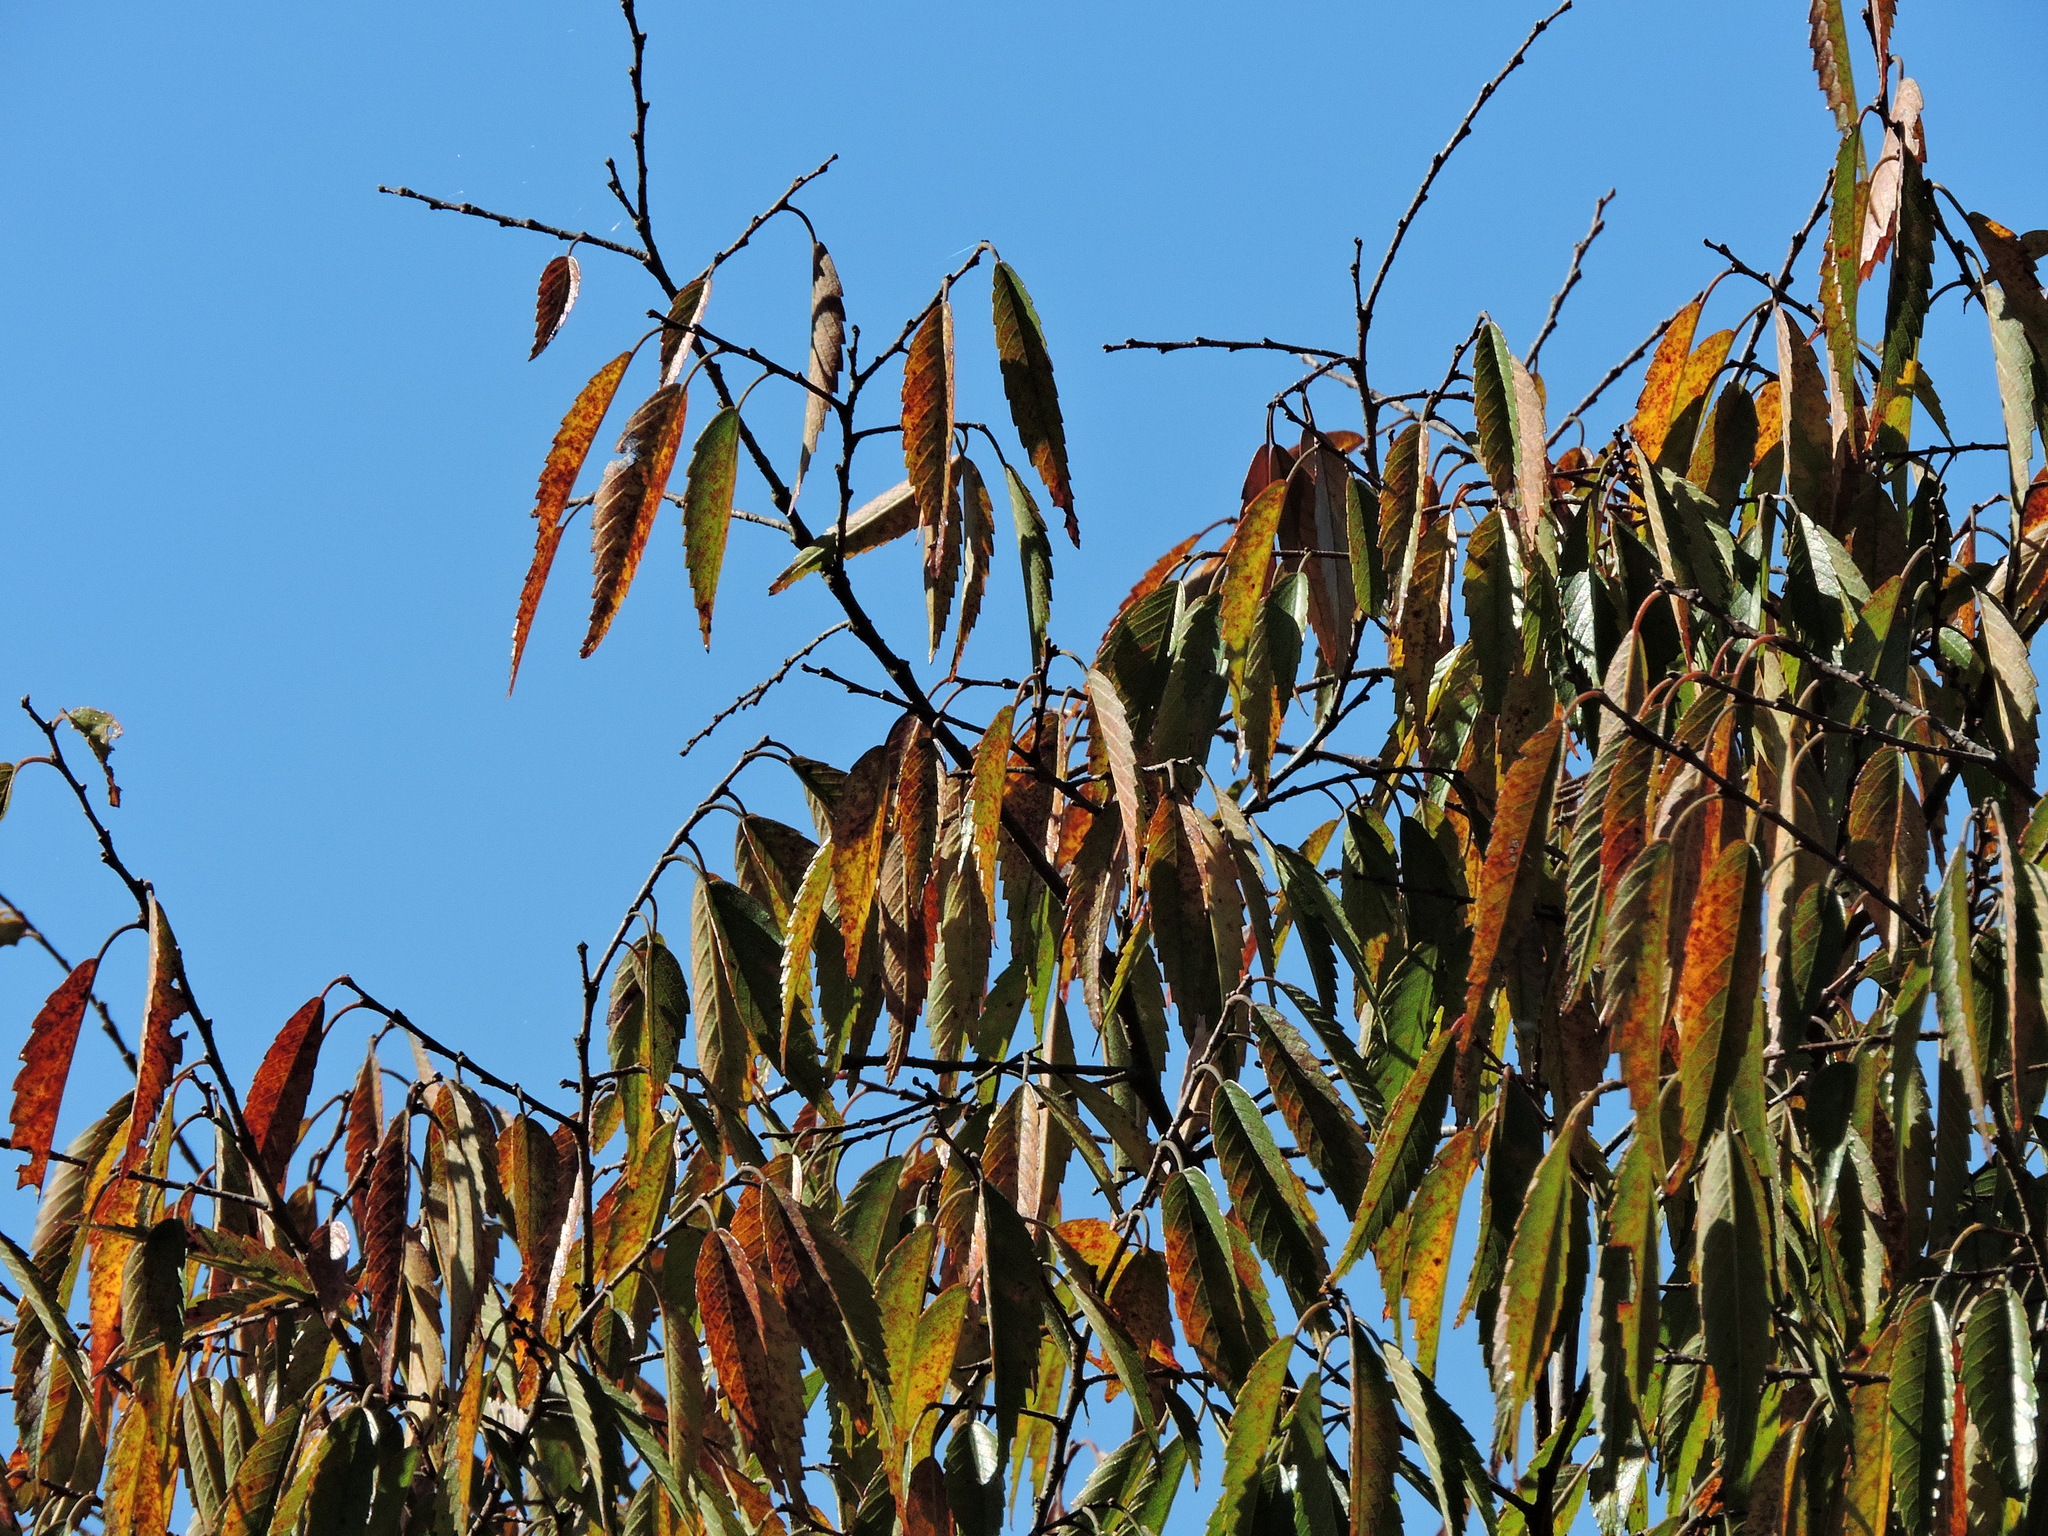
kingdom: Plantae
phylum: Tracheophyta
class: Magnoliopsida
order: Rosales
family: Ulmaceae
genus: Zelkova
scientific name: Zelkova serrata
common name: Japanese zelkova
